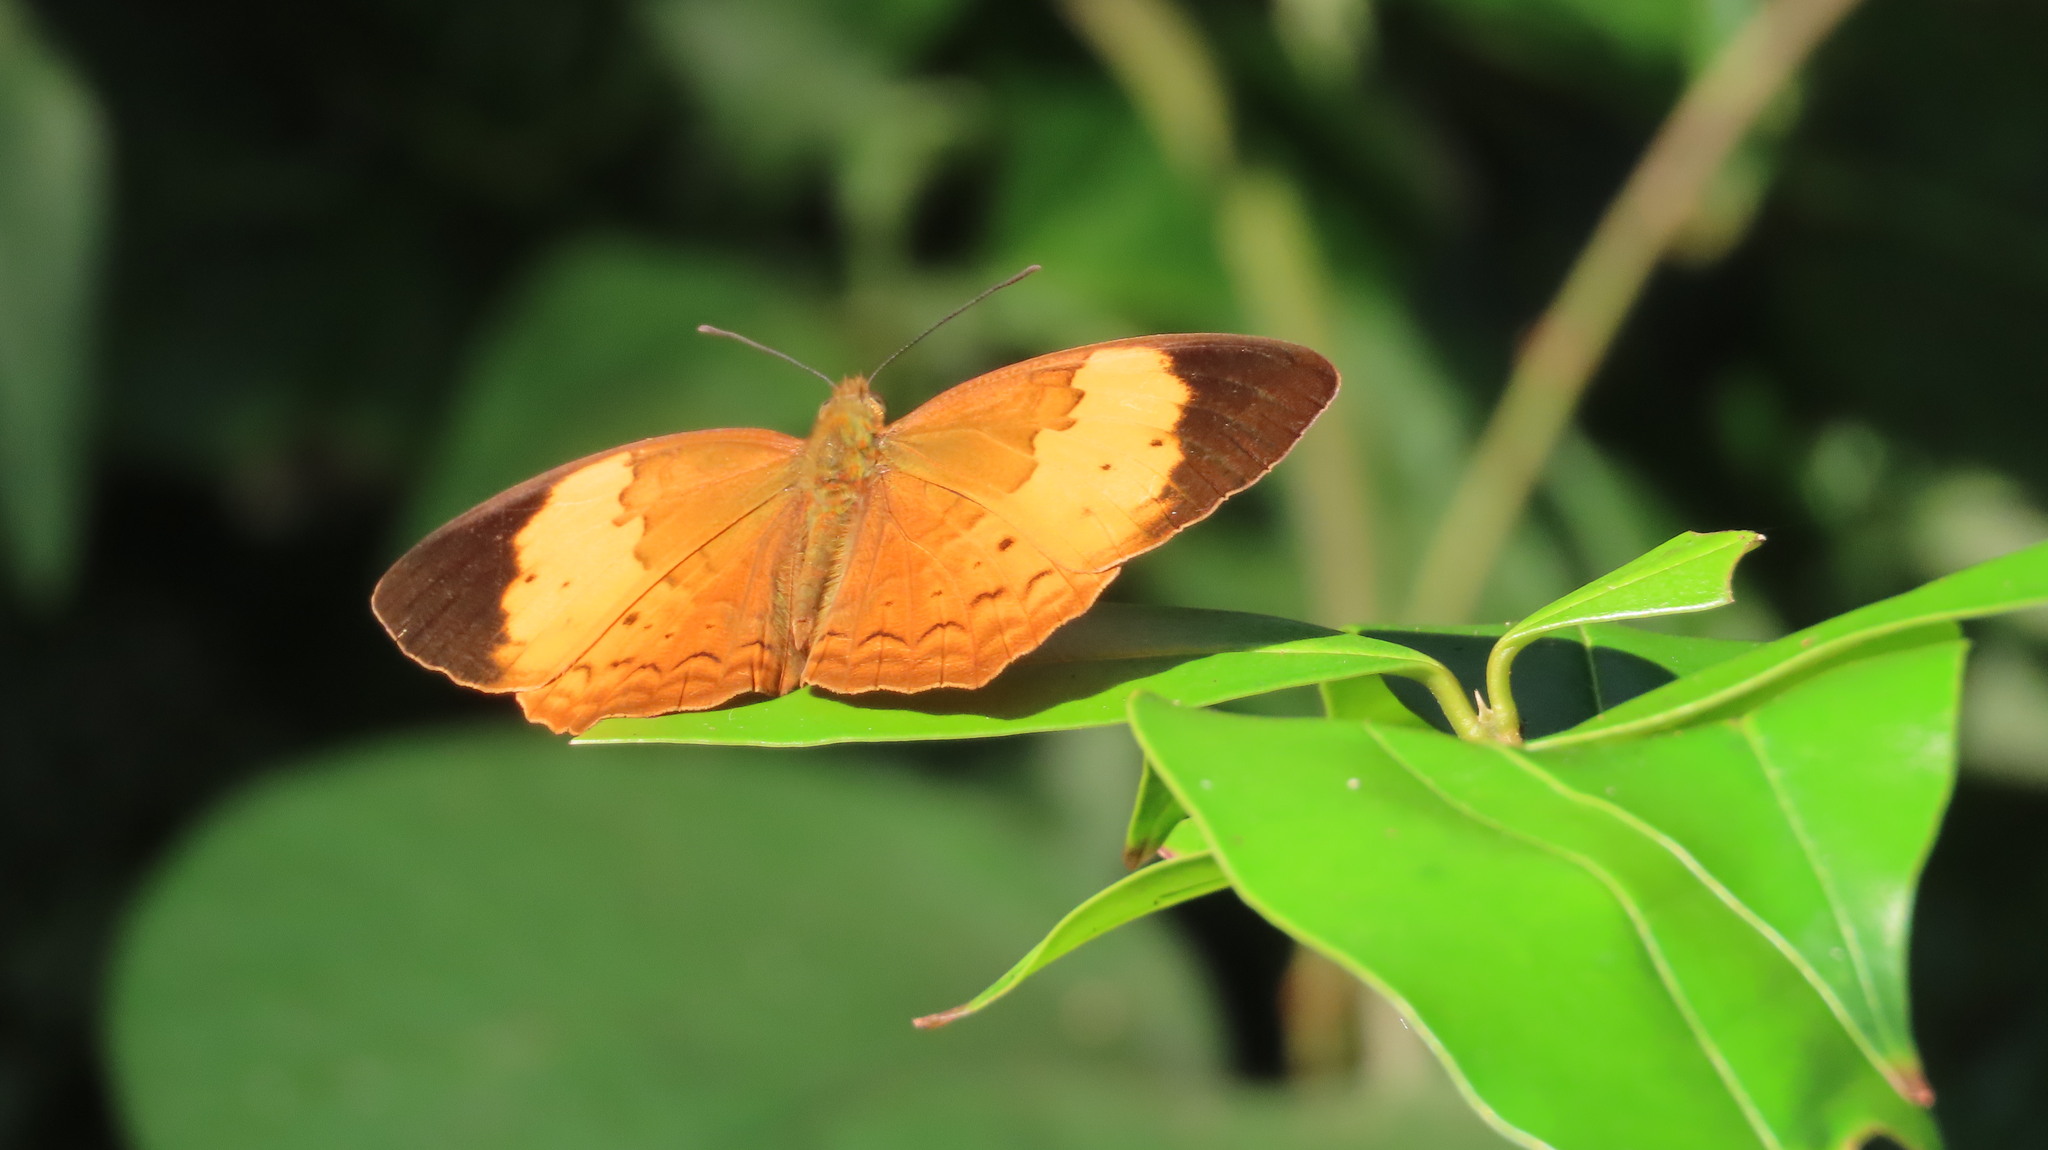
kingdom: Animalia
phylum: Arthropoda
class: Insecta
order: Lepidoptera
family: Nymphalidae
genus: Cupha
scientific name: Cupha erymanthis
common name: Rustic
